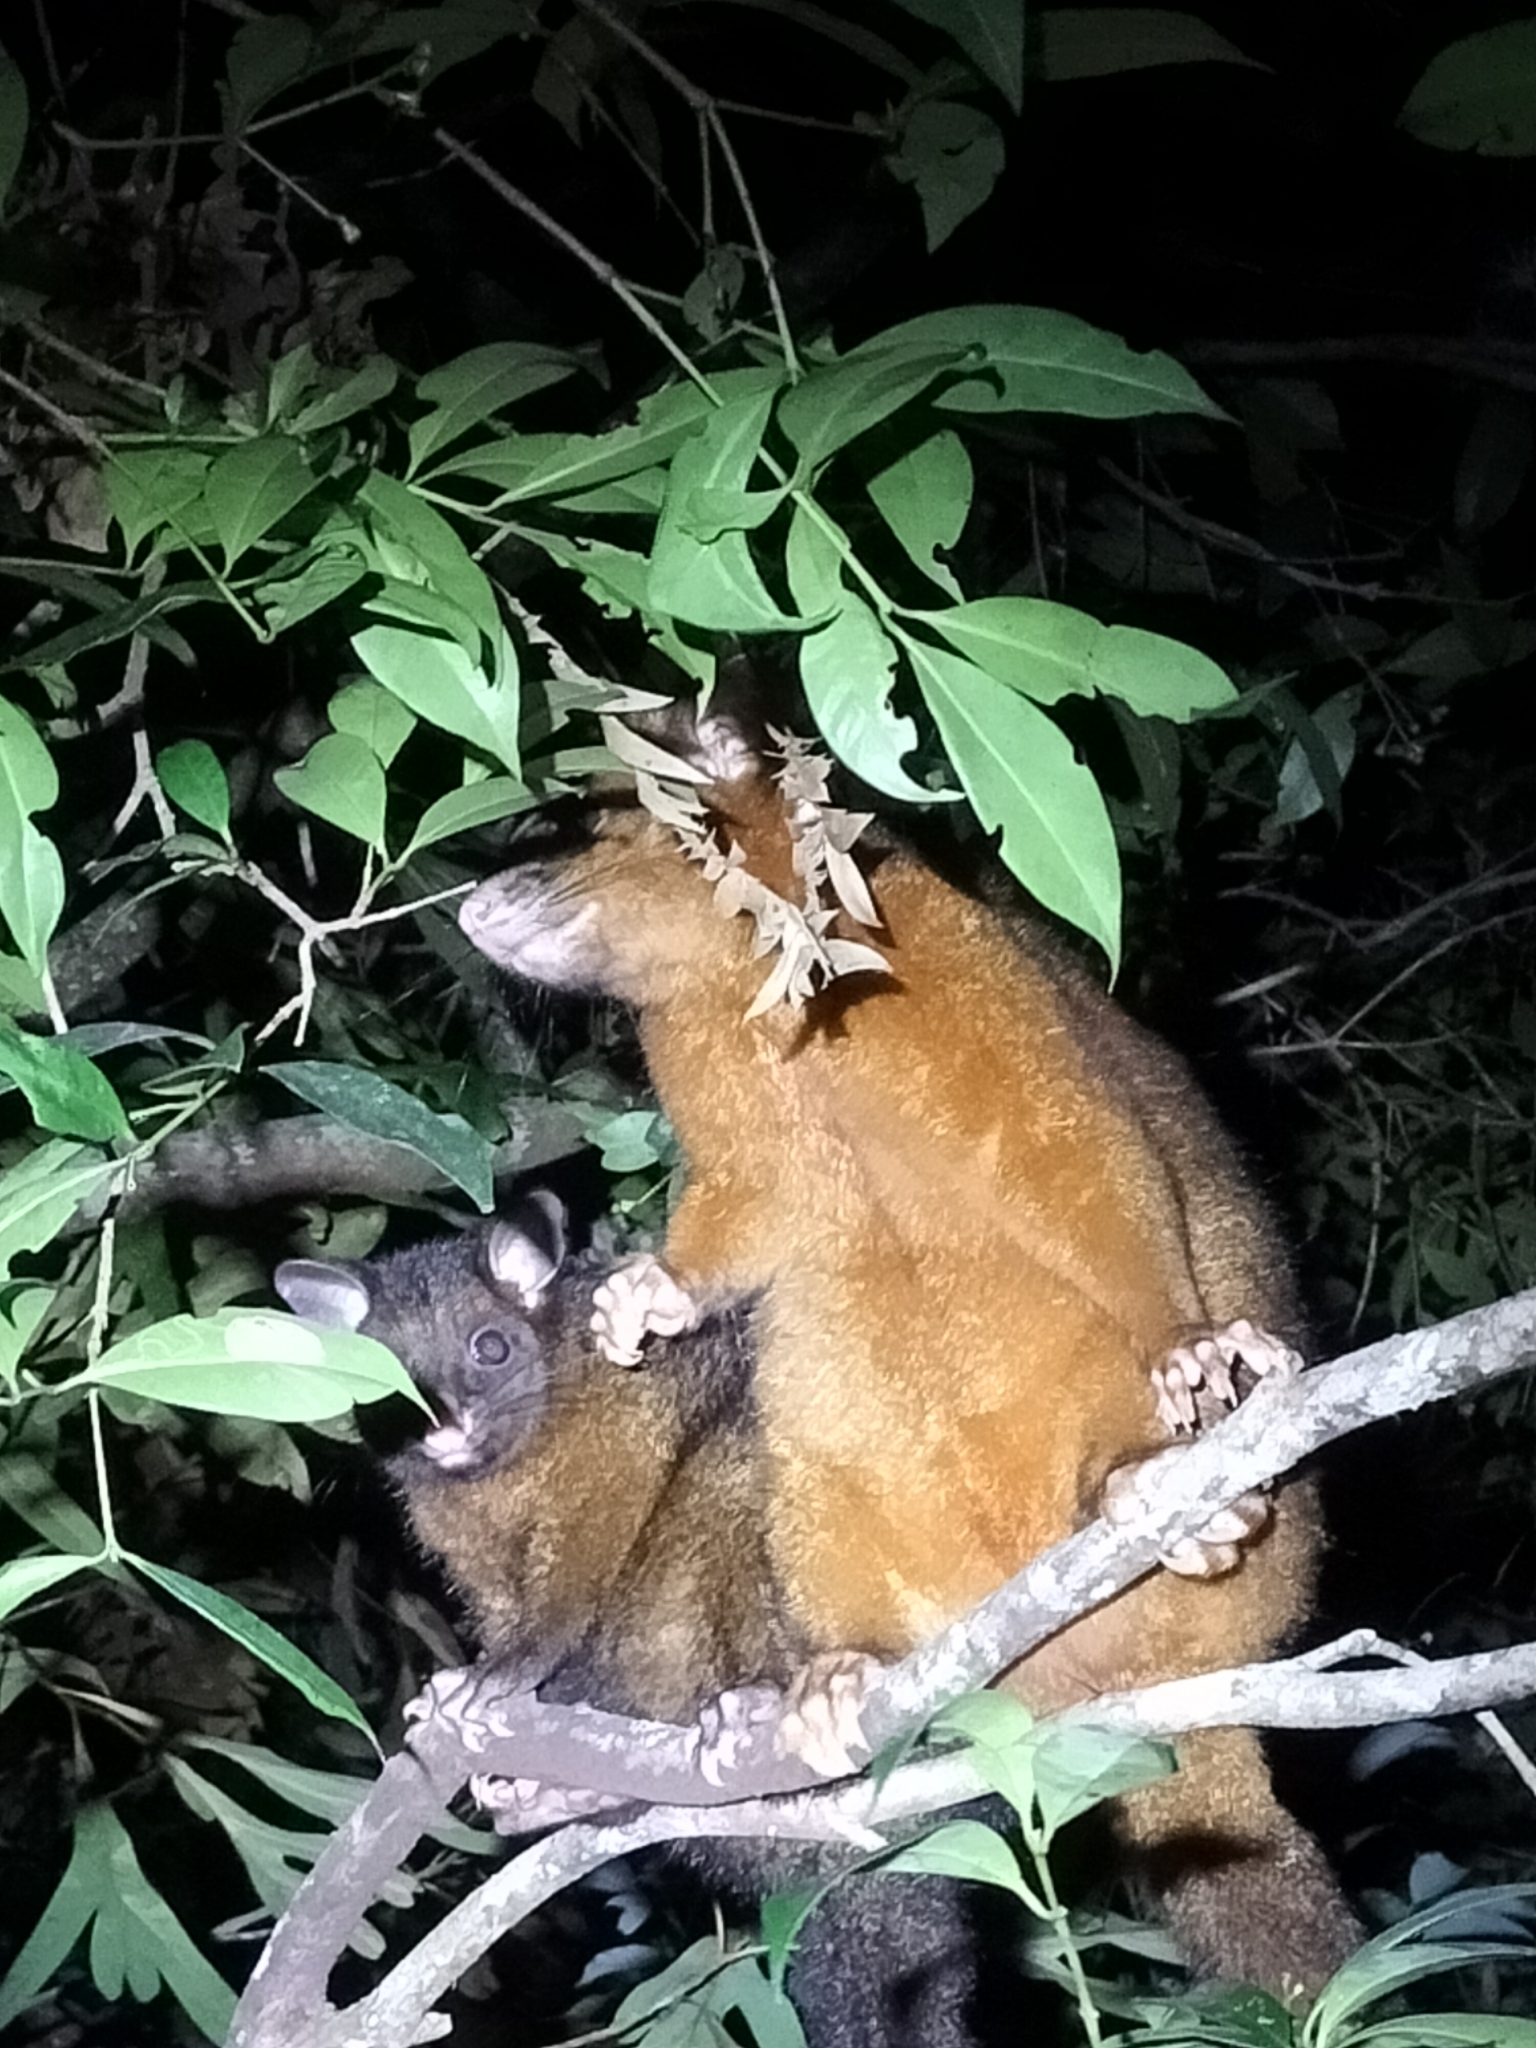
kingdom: Animalia
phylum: Chordata
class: Mammalia
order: Diprotodontia
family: Phalangeridae
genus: Trichosurus
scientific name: Trichosurus johnstonii
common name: Coppery brushtail
